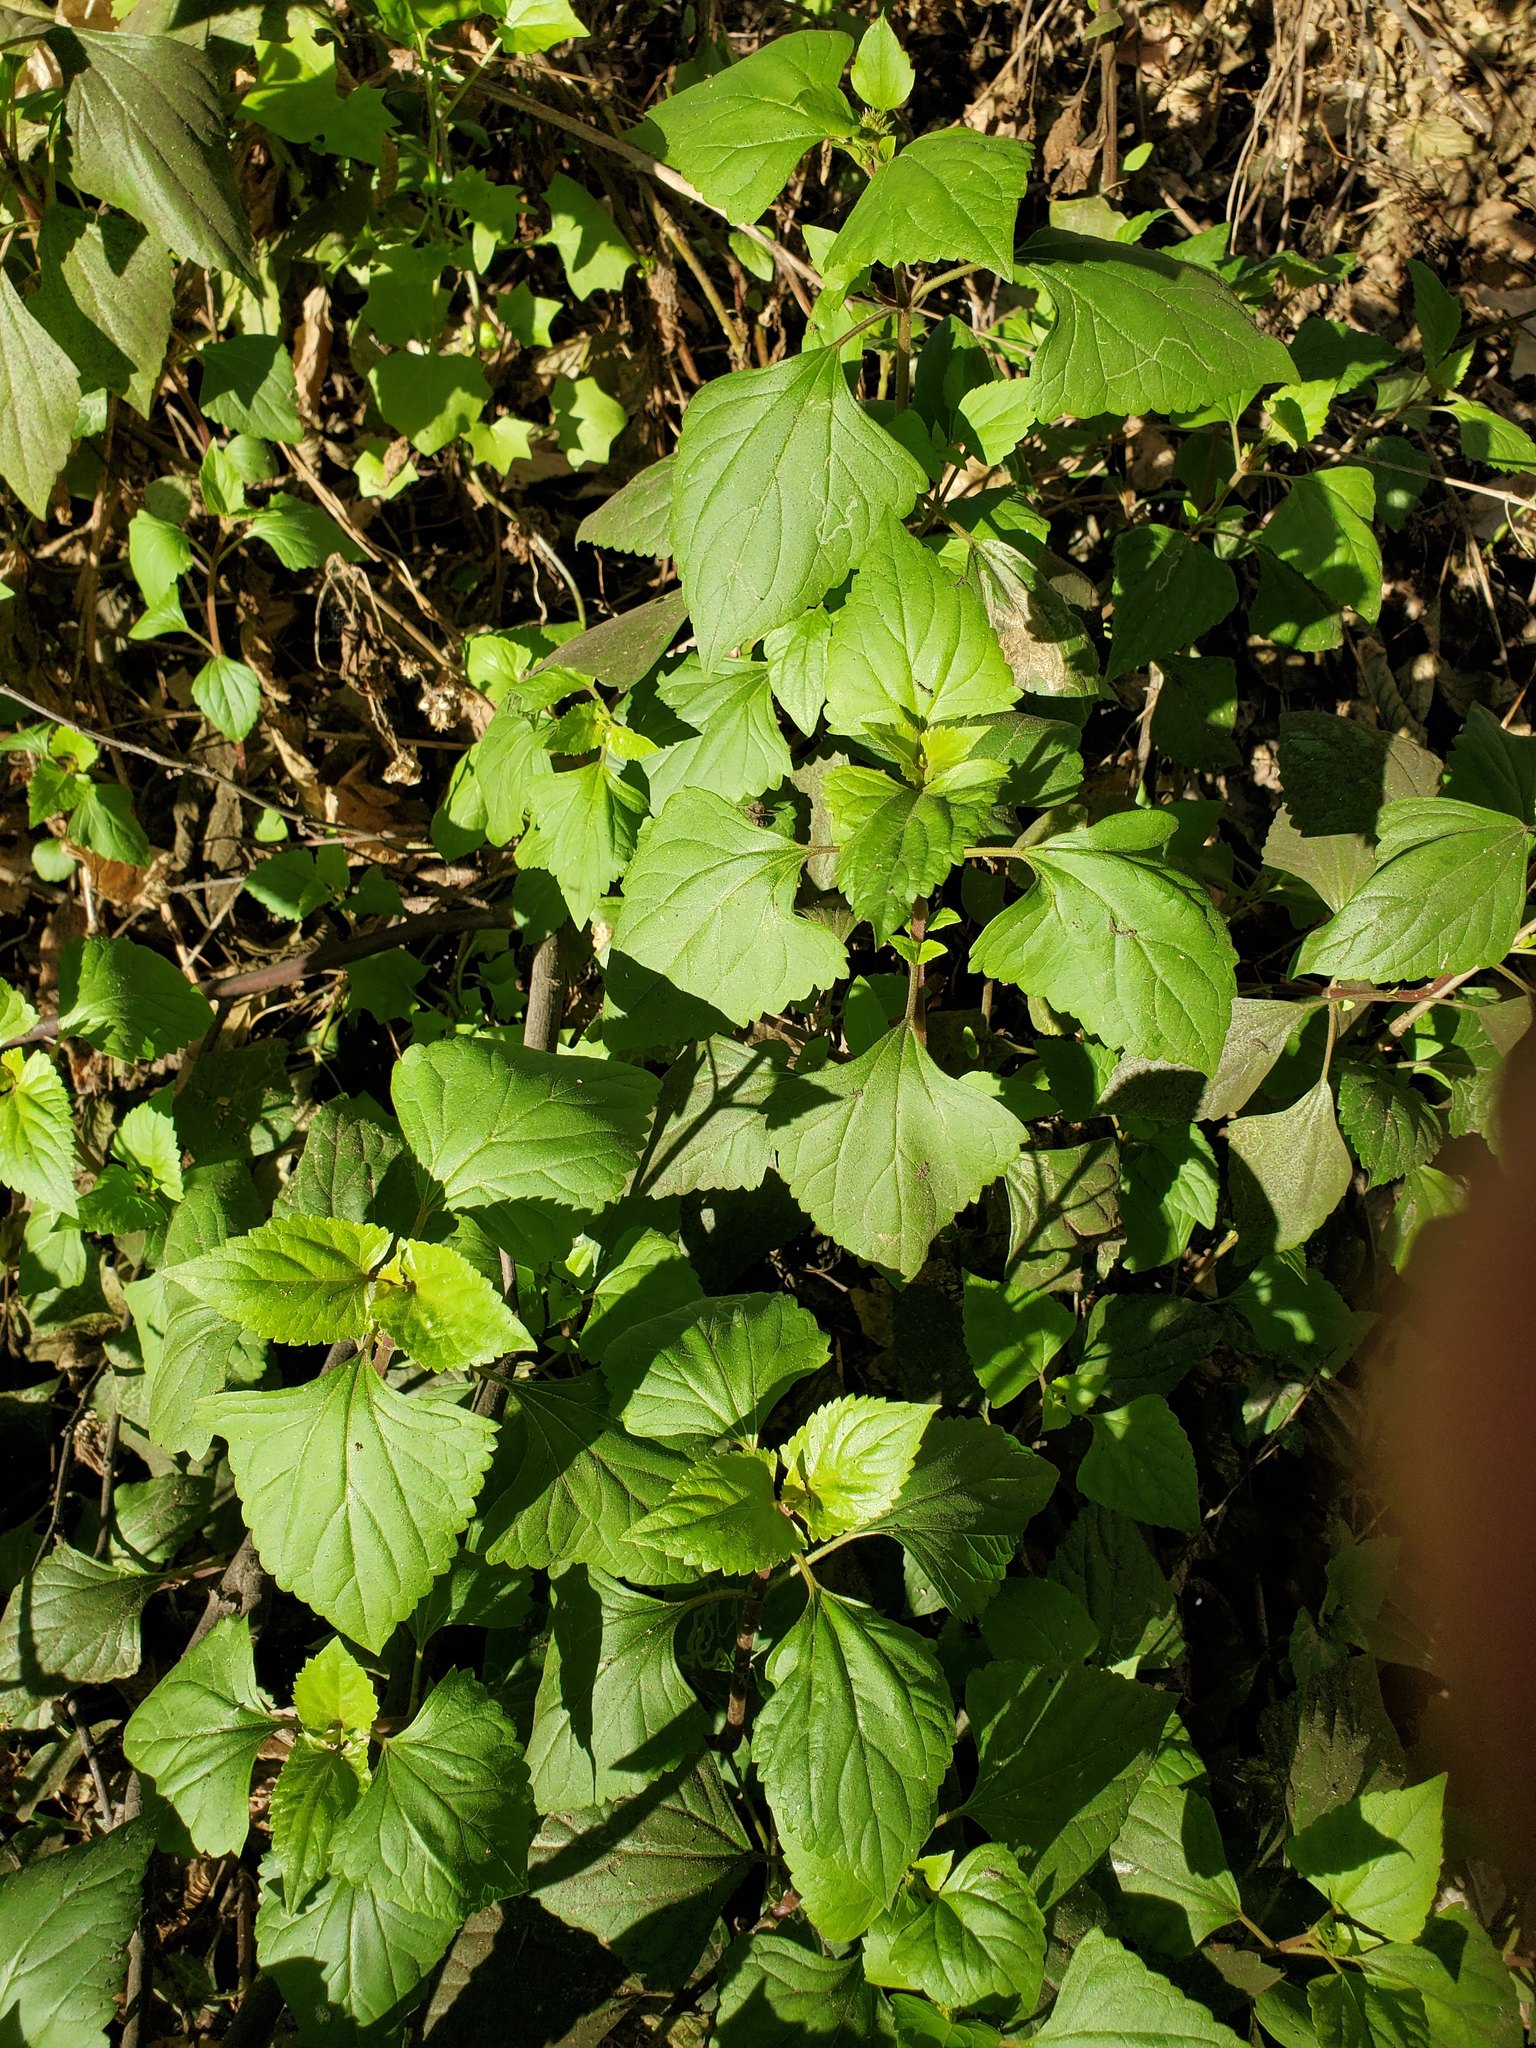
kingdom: Plantae
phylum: Tracheophyta
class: Magnoliopsida
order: Asterales
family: Asteraceae
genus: Ageratina
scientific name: Ageratina adenophora
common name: Sticky snakeroot
